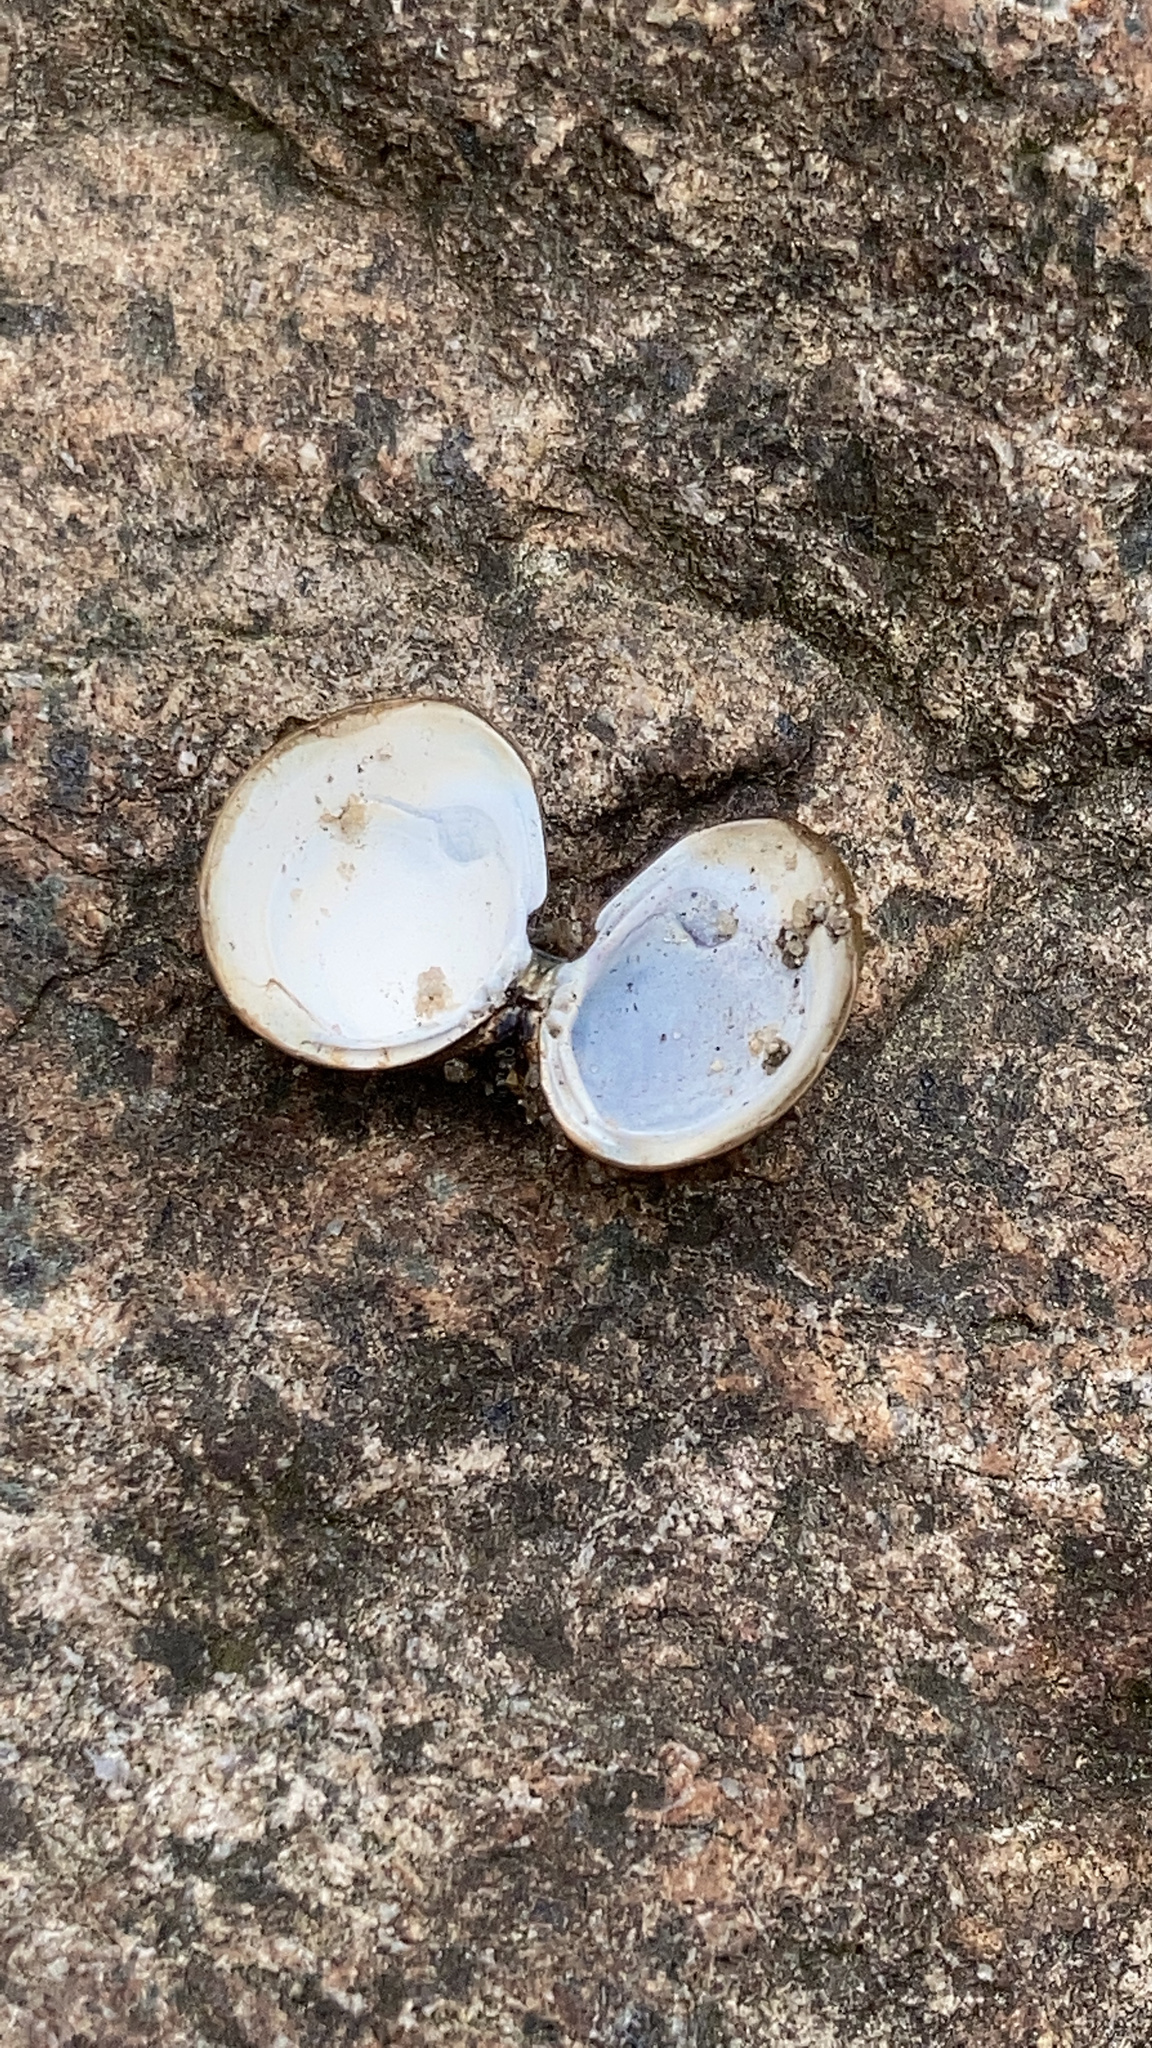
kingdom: Animalia
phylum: Mollusca
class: Bivalvia
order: Venerida
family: Cyrenidae
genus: Corbicula
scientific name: Corbicula fluminea
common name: Asian clam
